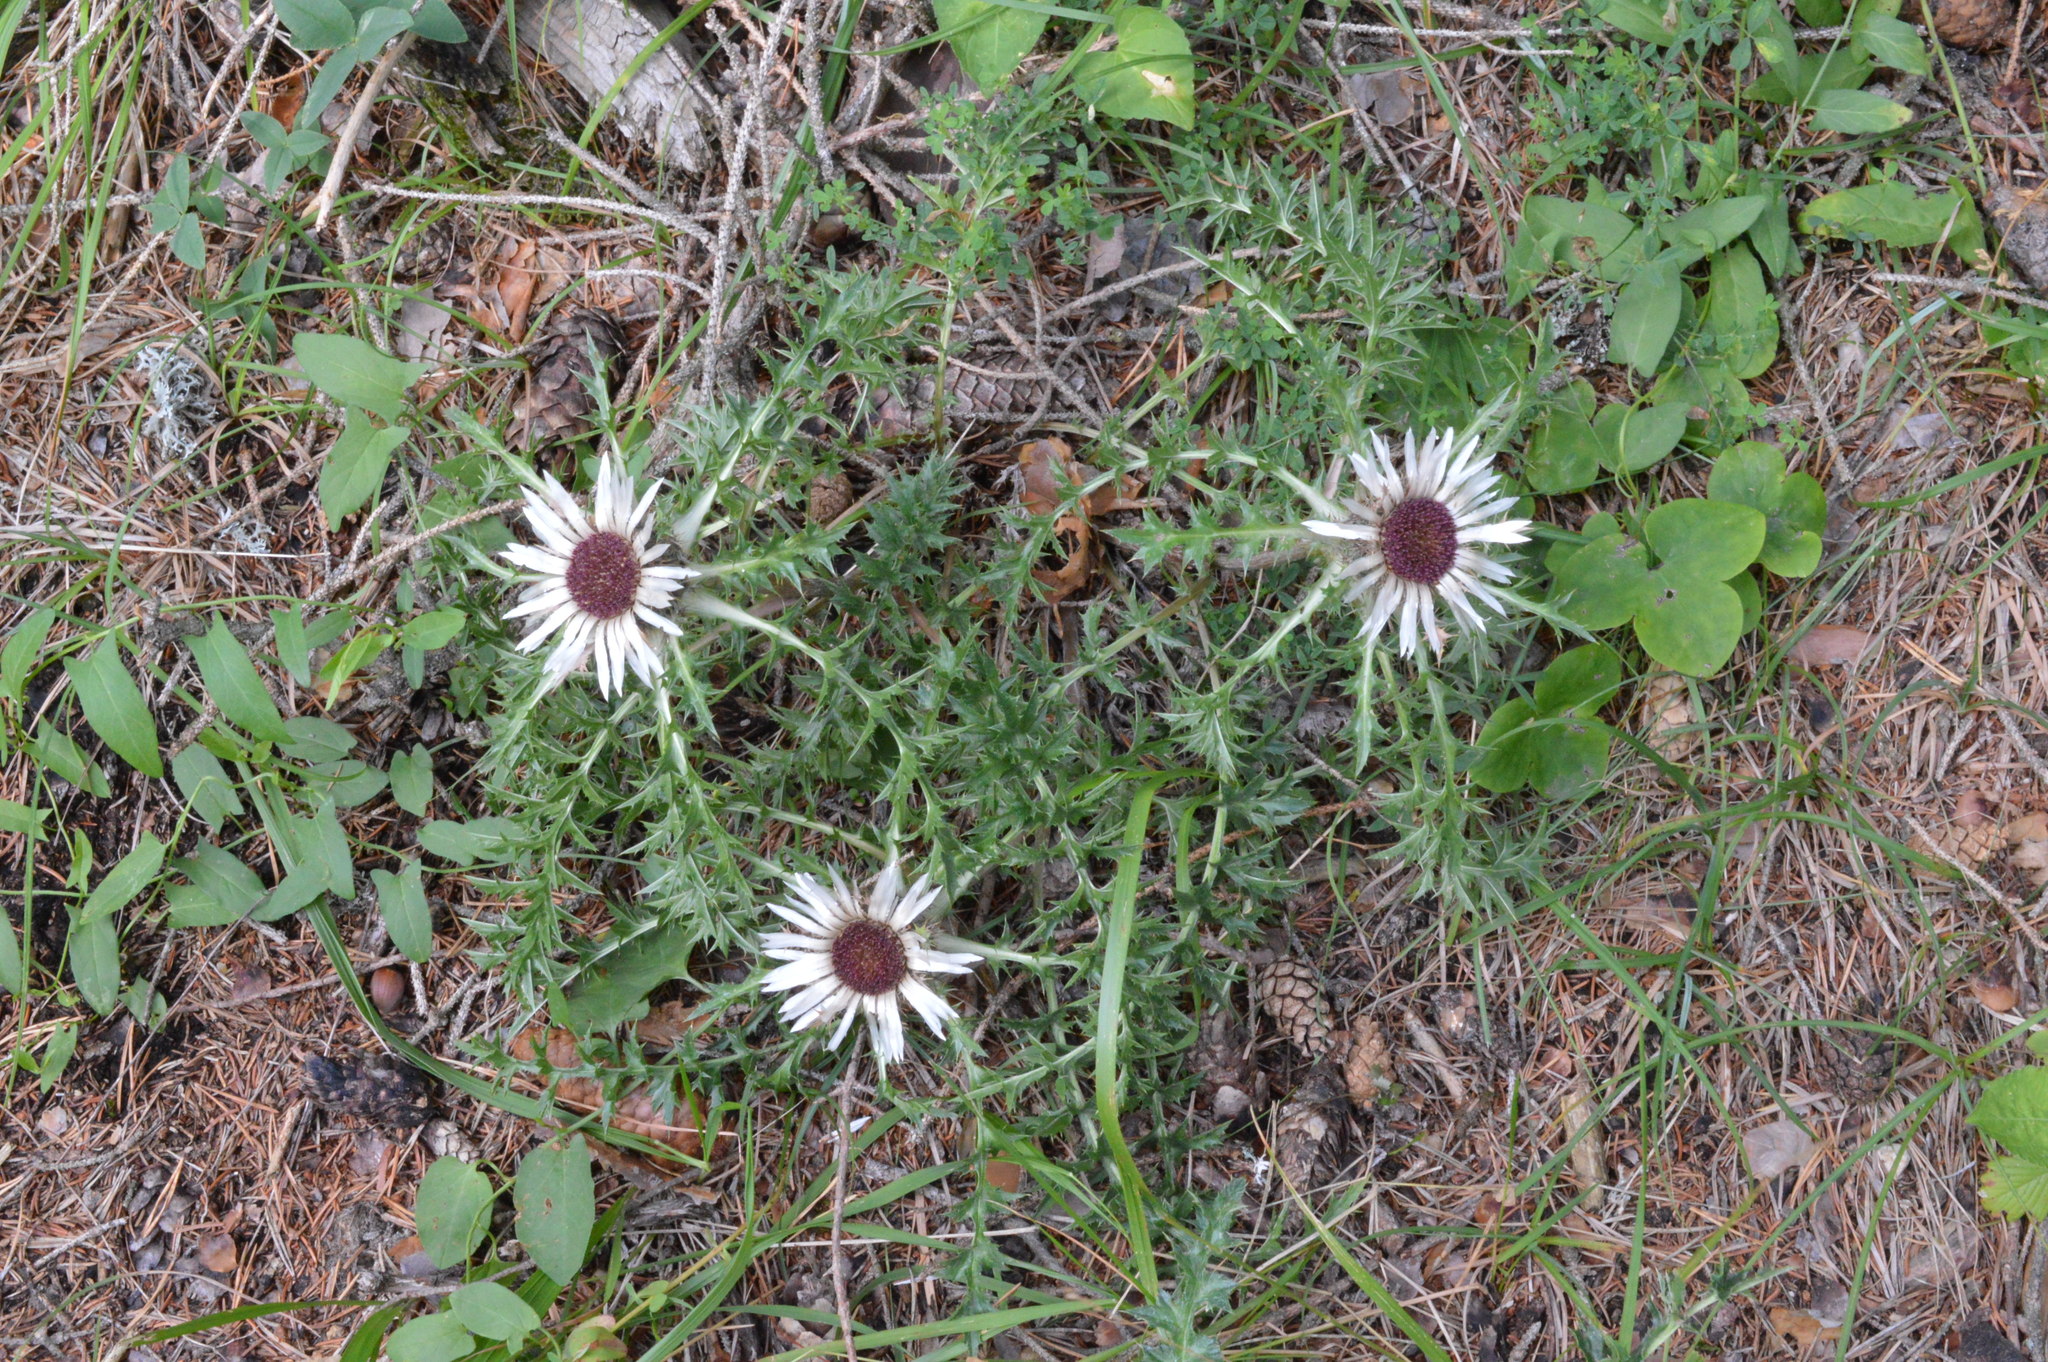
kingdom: Plantae
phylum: Tracheophyta
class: Magnoliopsida
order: Asterales
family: Asteraceae
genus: Carlina
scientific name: Carlina acaulis
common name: Stemless carline thistle
